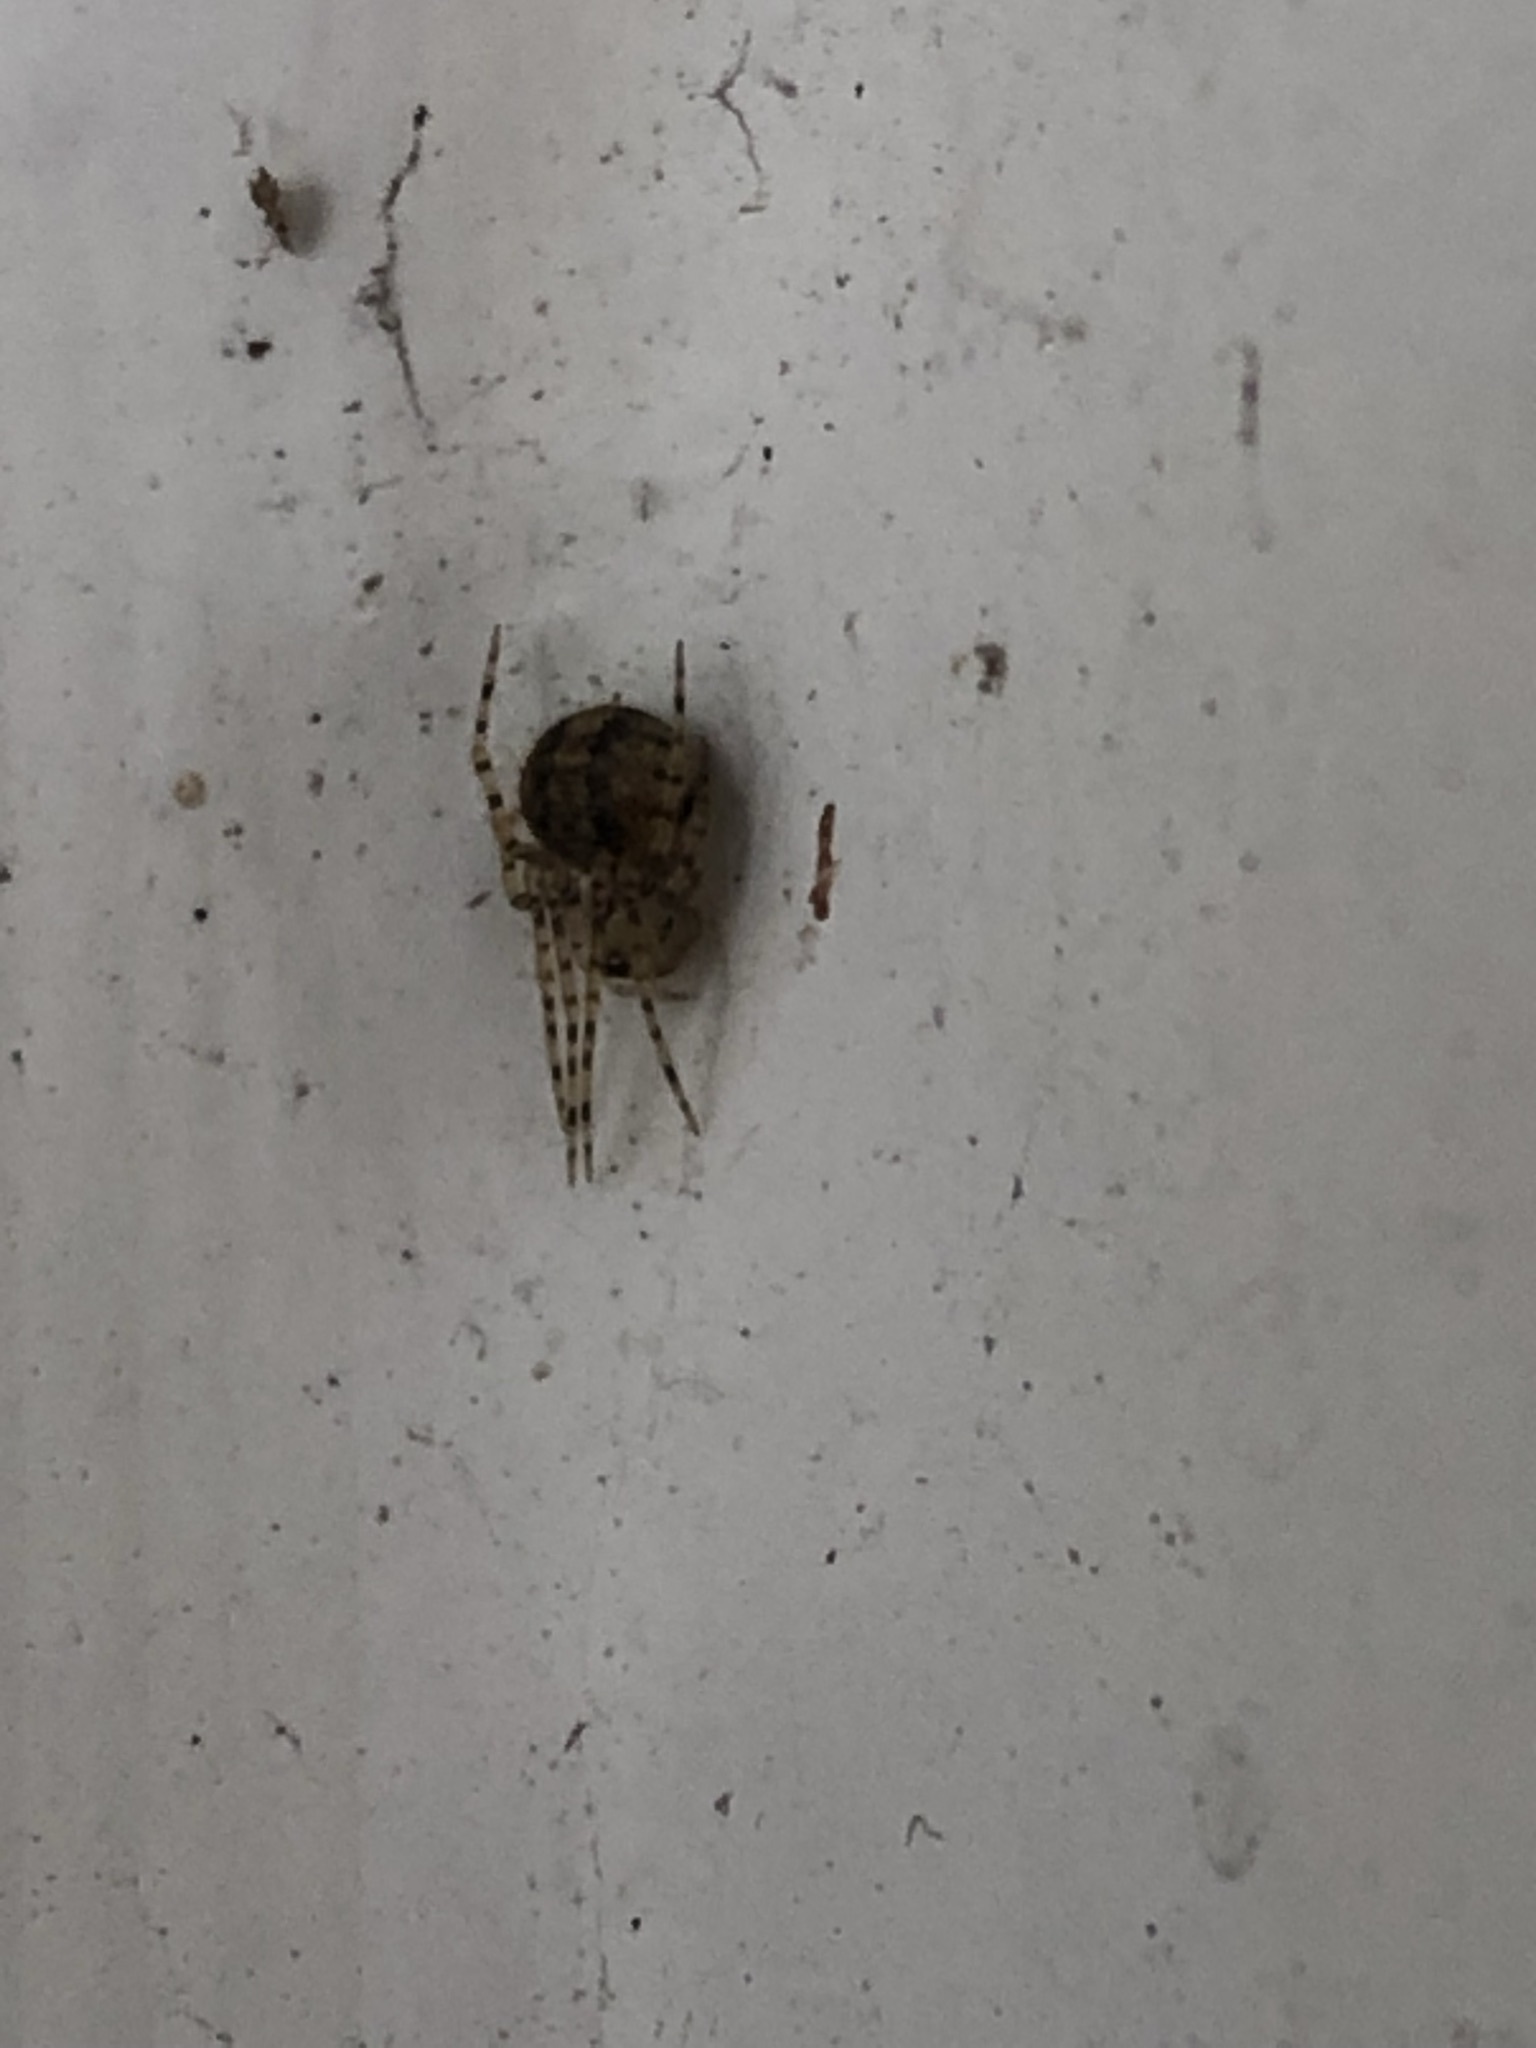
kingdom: Animalia
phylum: Arthropoda
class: Arachnida
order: Araneae
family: Theridiidae
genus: Platnickina
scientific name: Platnickina mneon
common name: Theridiid spidereater
